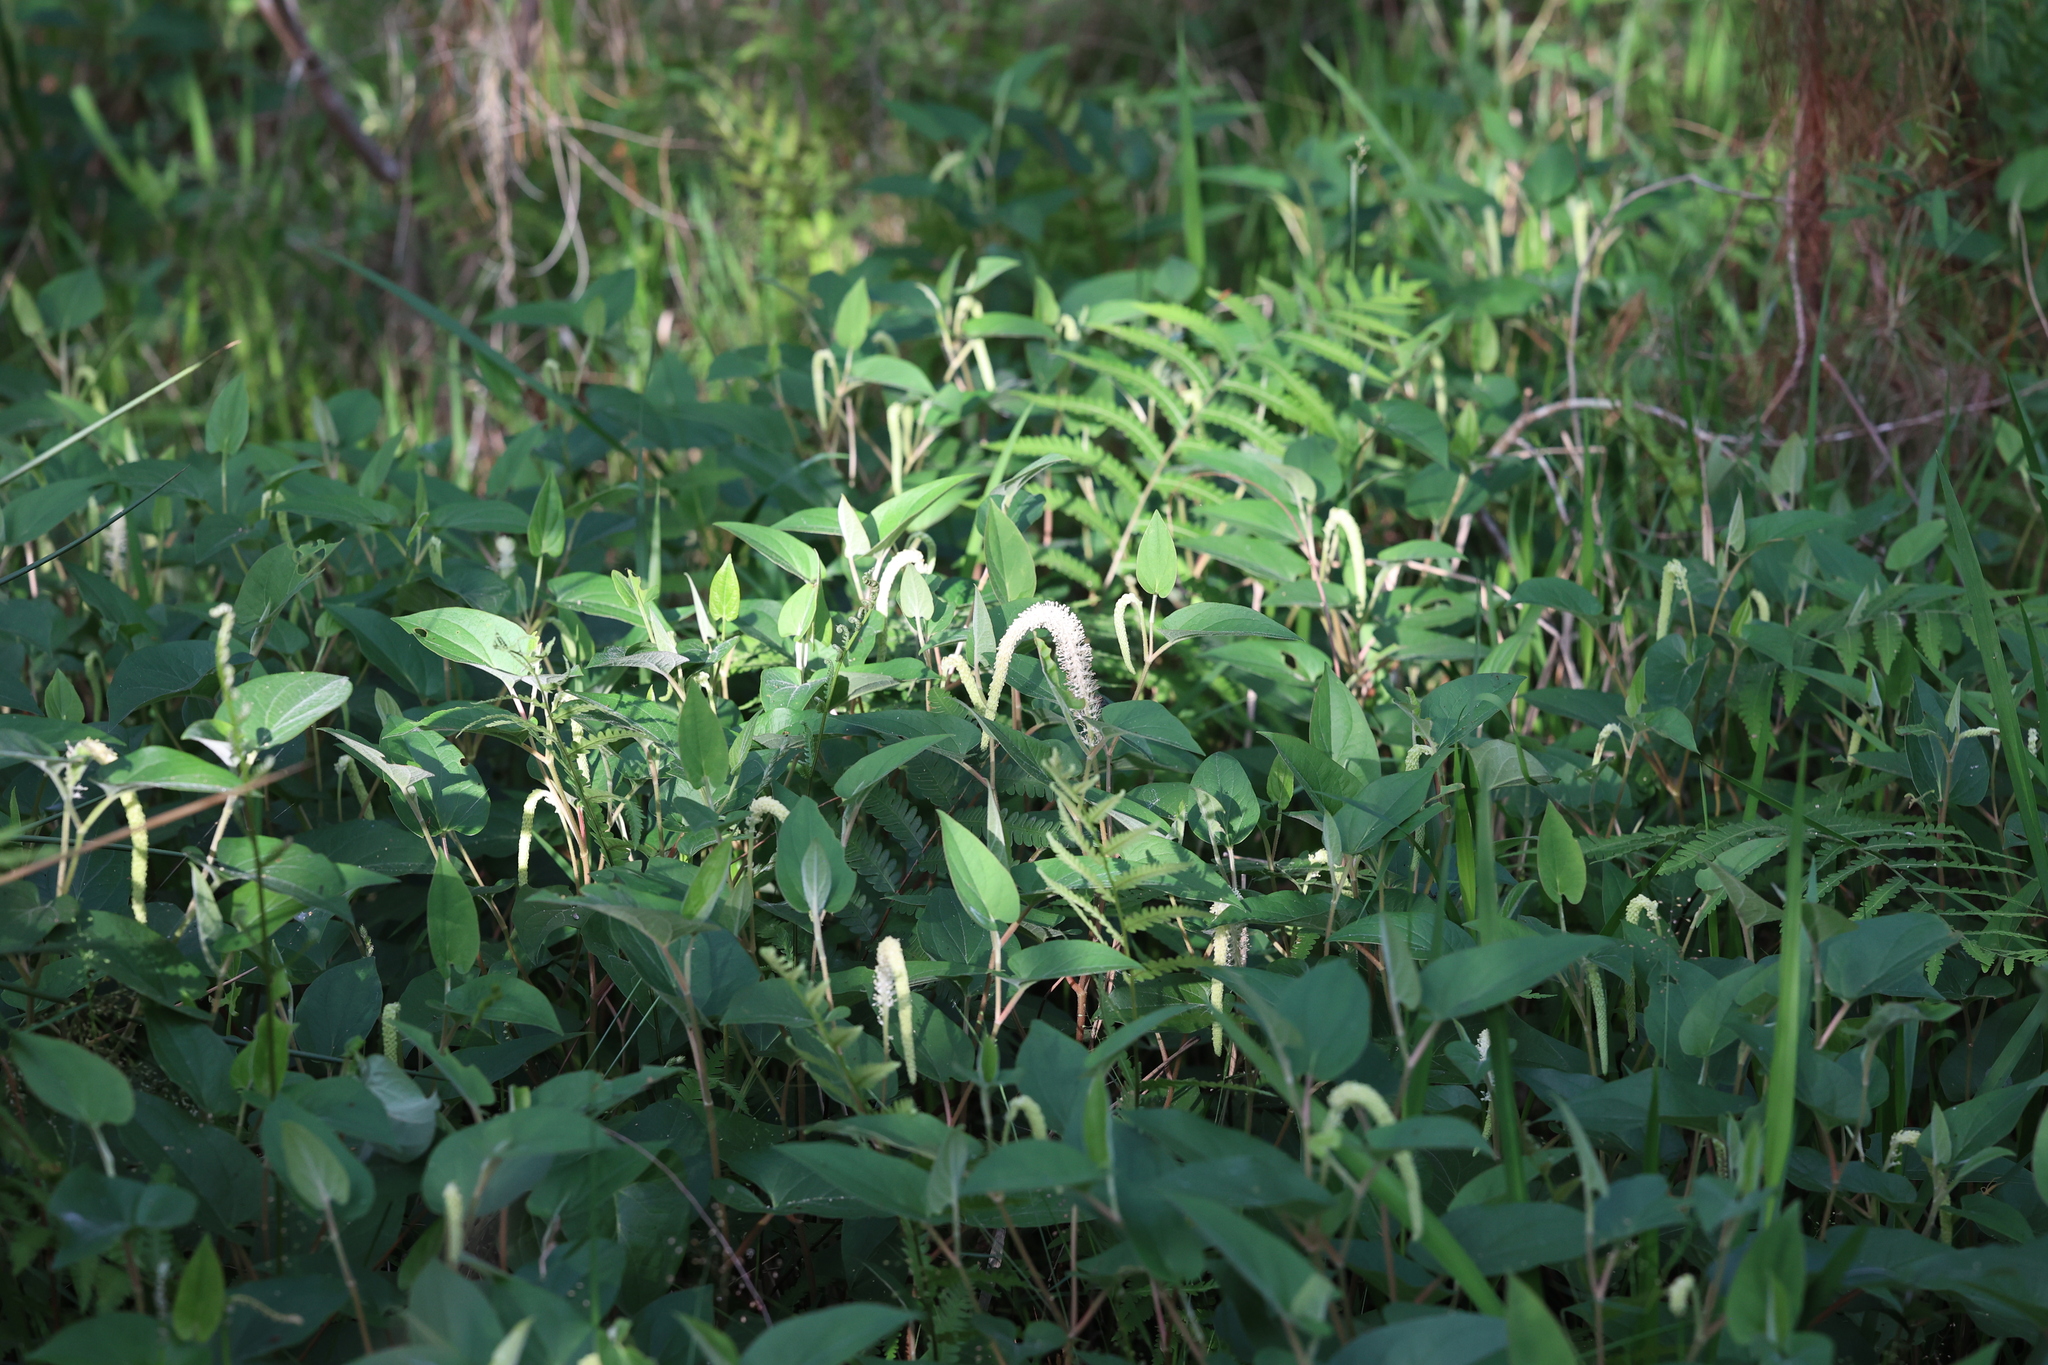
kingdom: Plantae
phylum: Tracheophyta
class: Magnoliopsida
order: Piperales
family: Saururaceae
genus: Saururus
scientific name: Saururus cernuus
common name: Lizard's-tail
